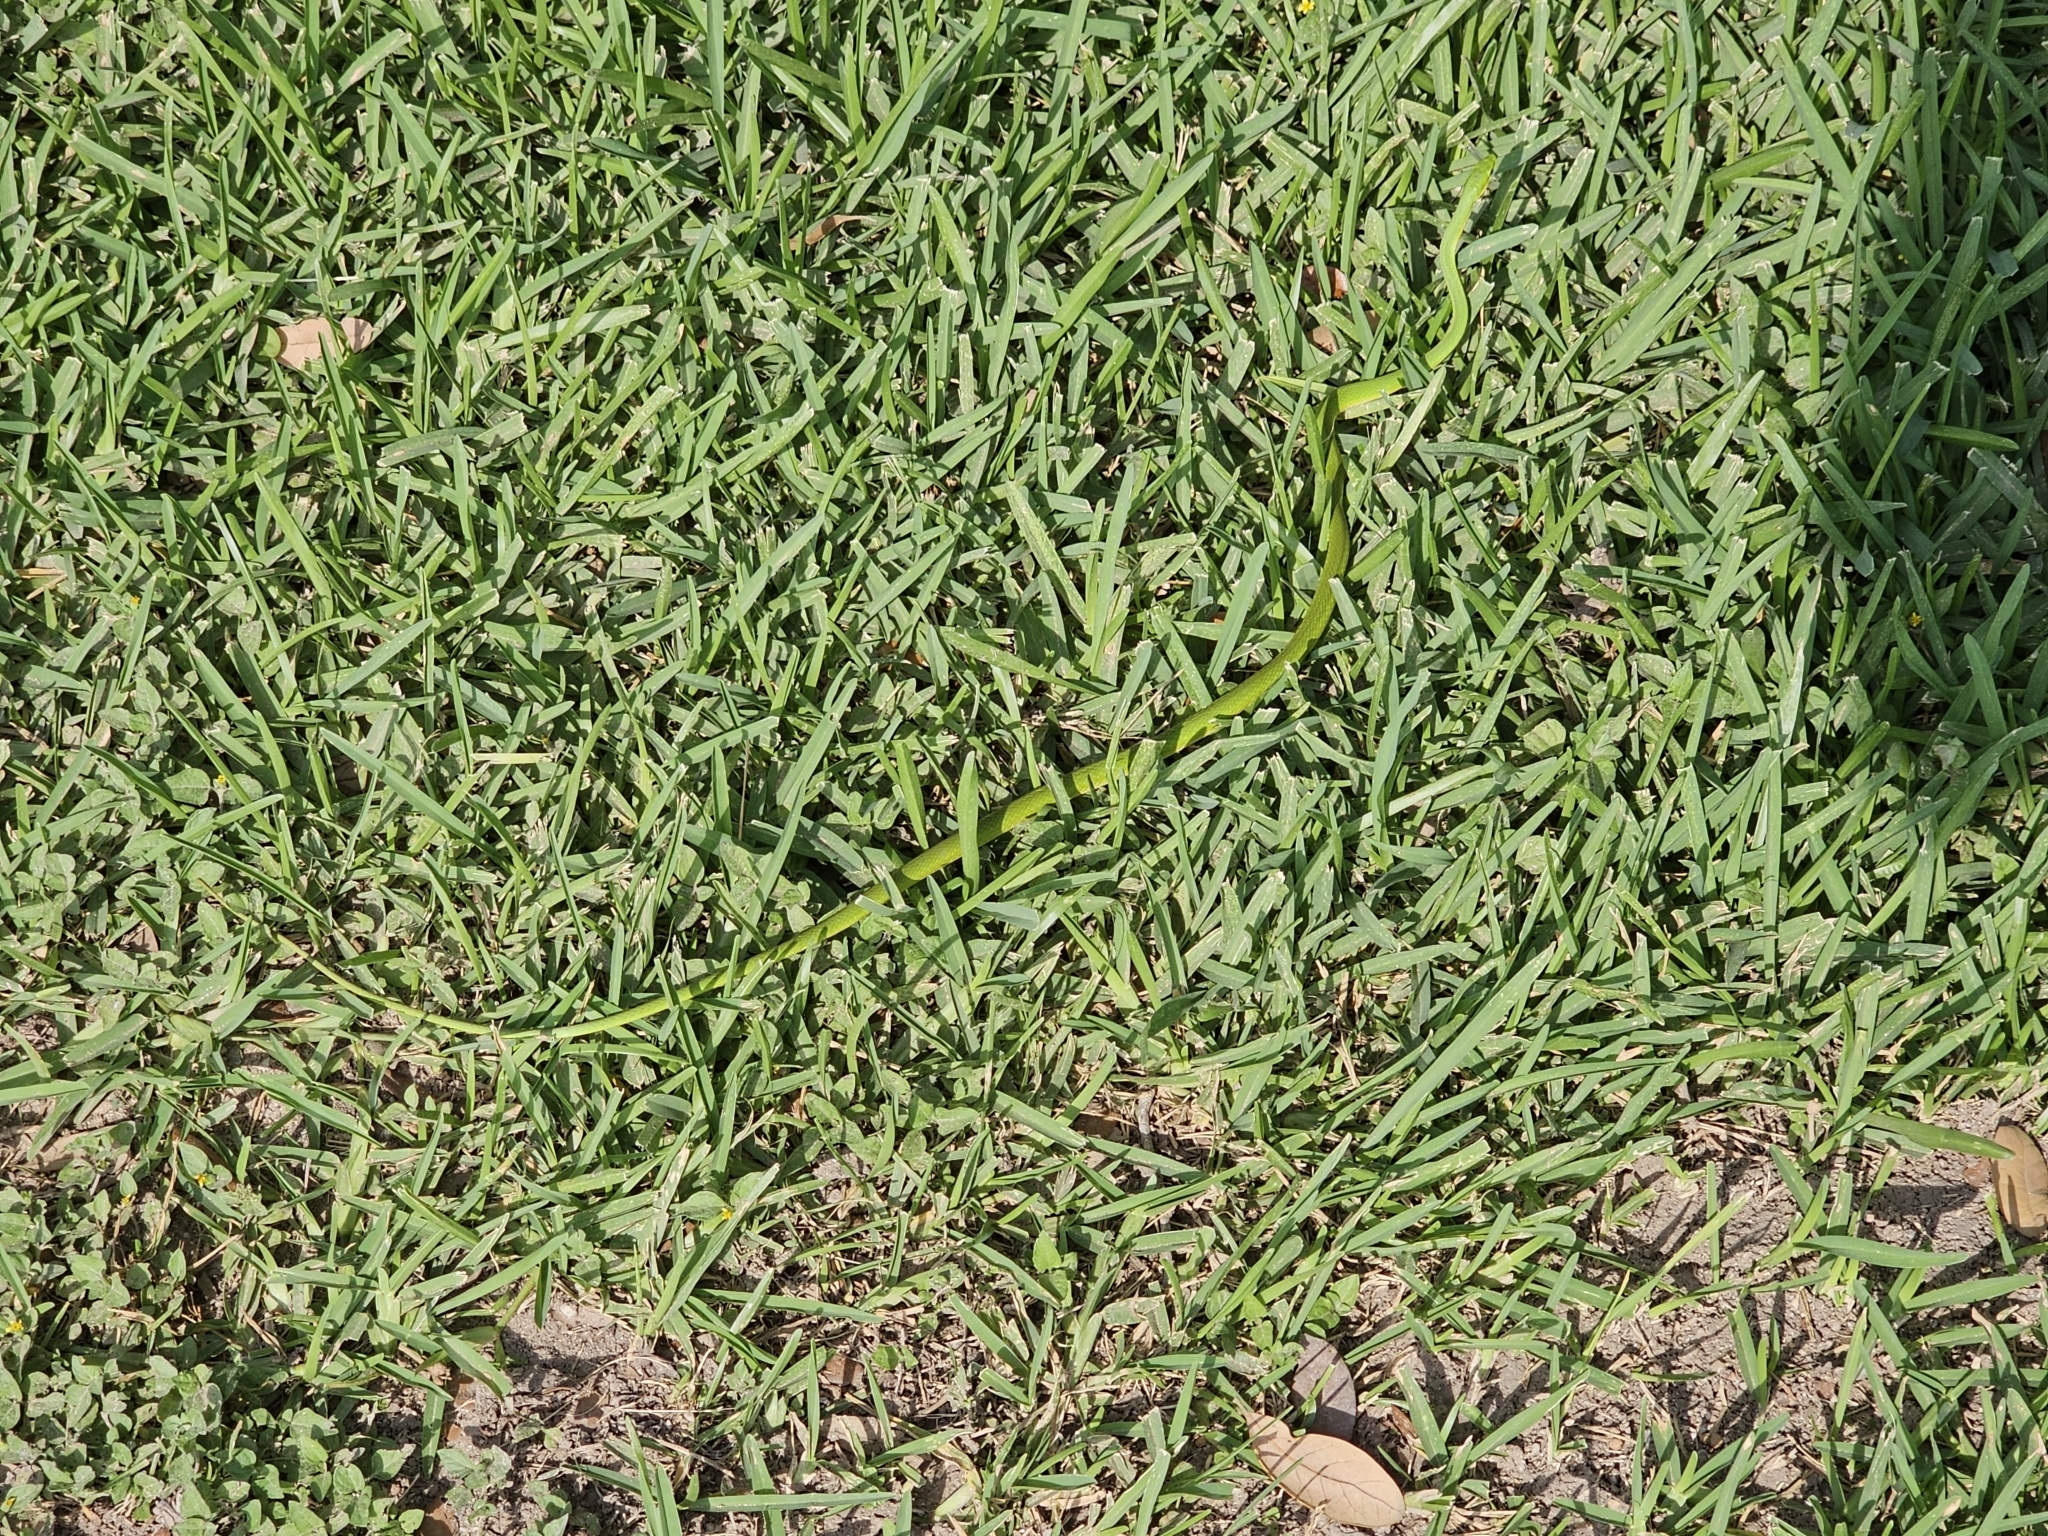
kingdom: Animalia
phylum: Chordata
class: Squamata
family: Colubridae
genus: Opheodrys
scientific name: Opheodrys aestivus
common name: Rough greensnake
